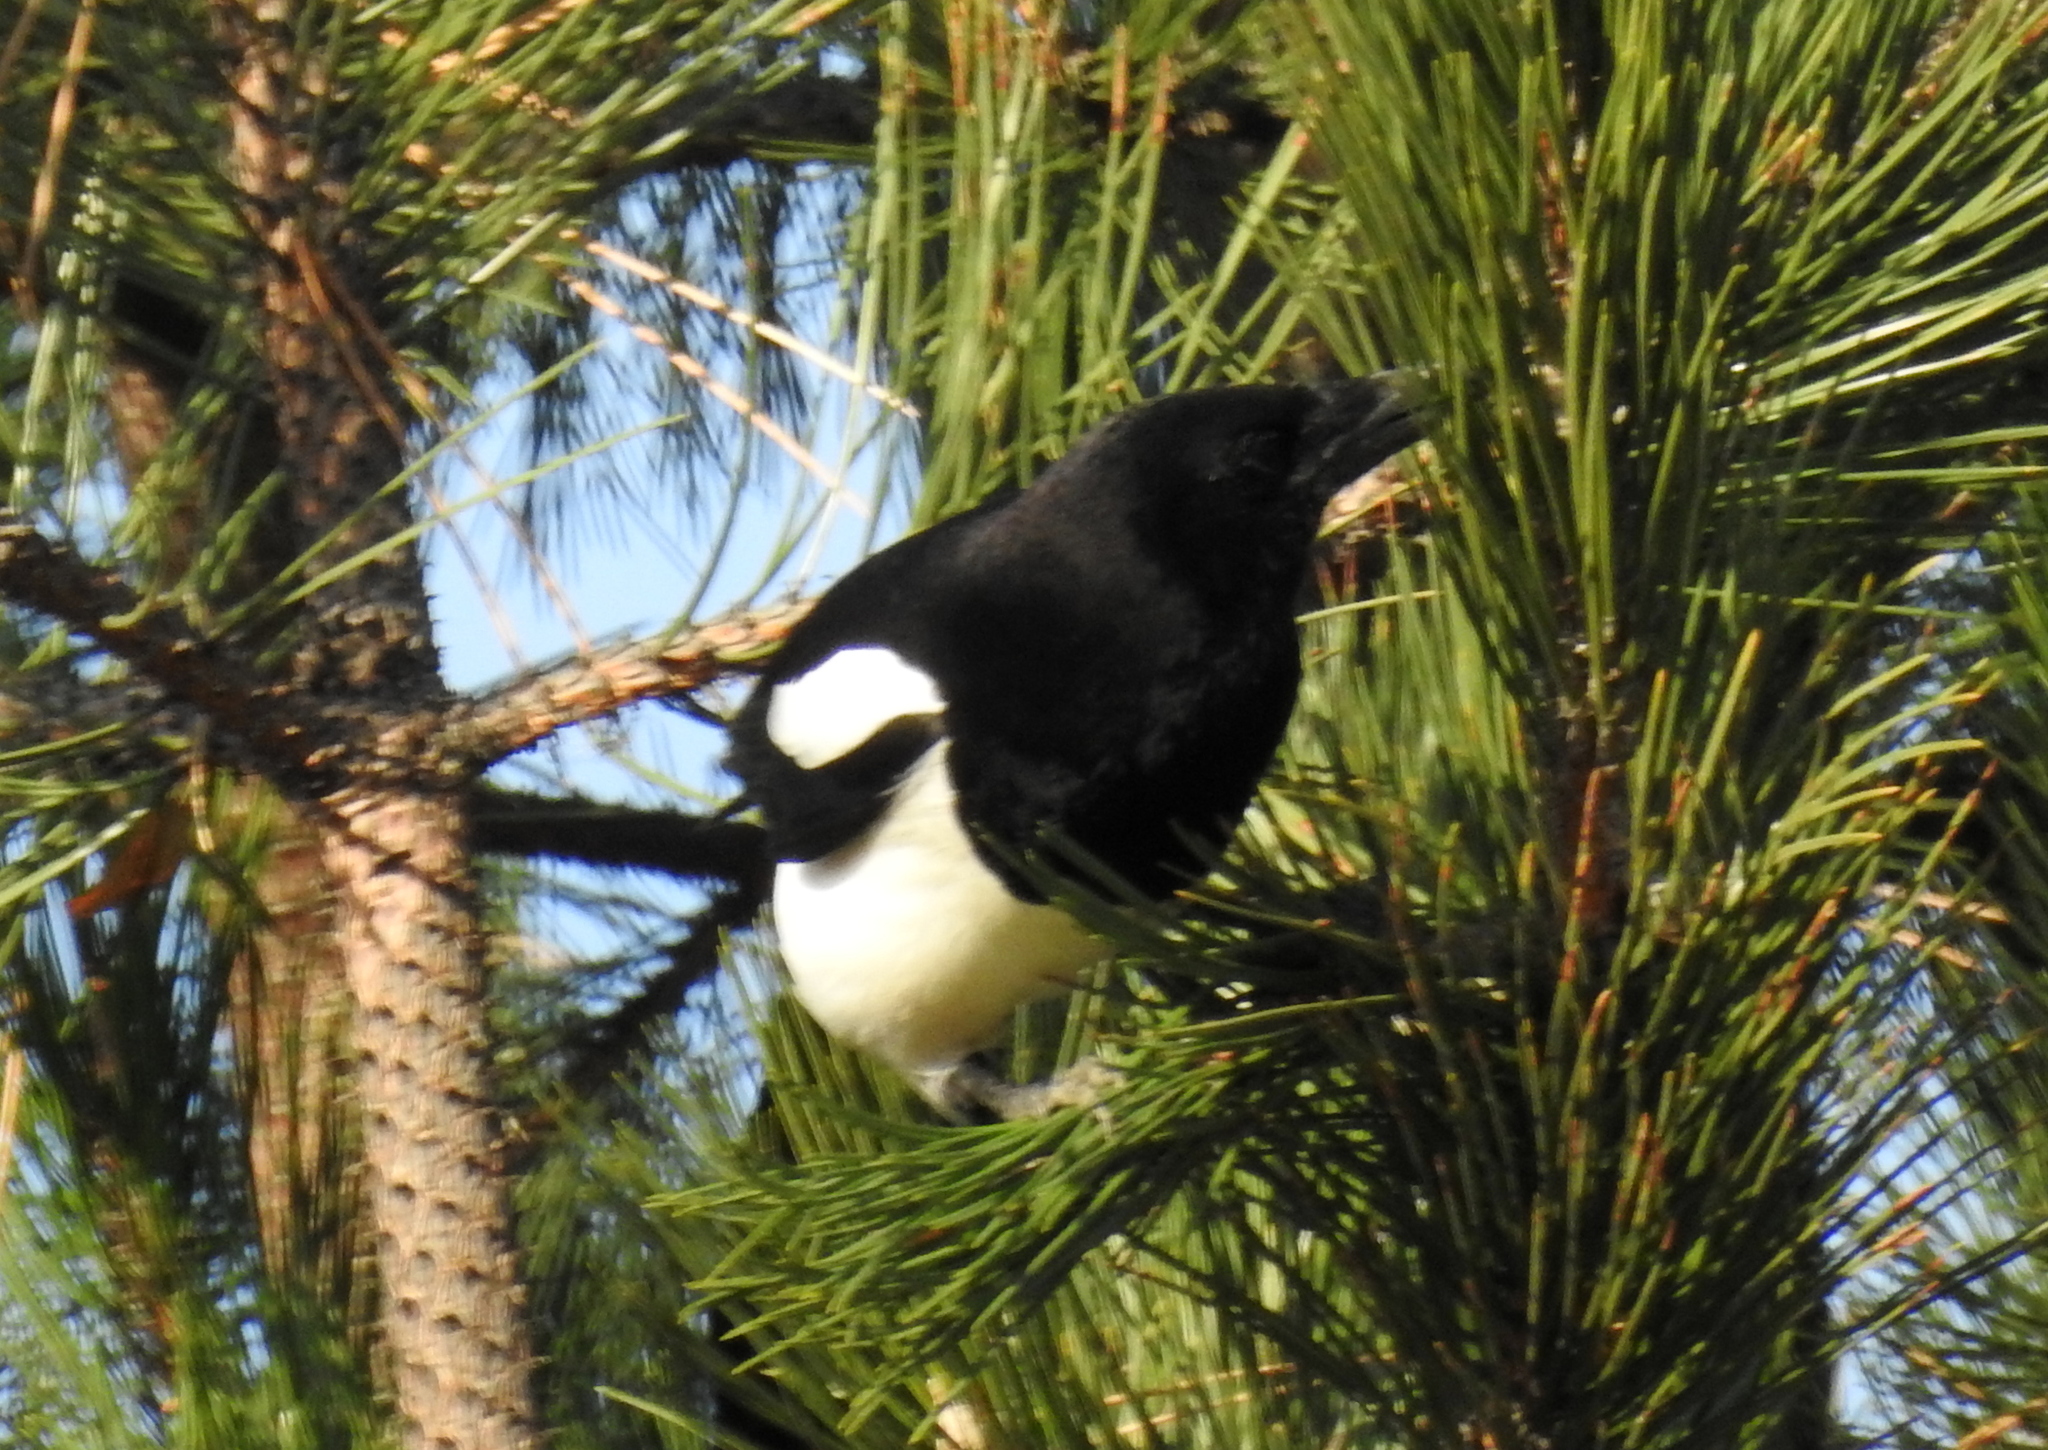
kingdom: Animalia
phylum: Chordata
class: Aves
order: Passeriformes
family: Corvidae
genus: Pica
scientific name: Pica pica
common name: Eurasian magpie
